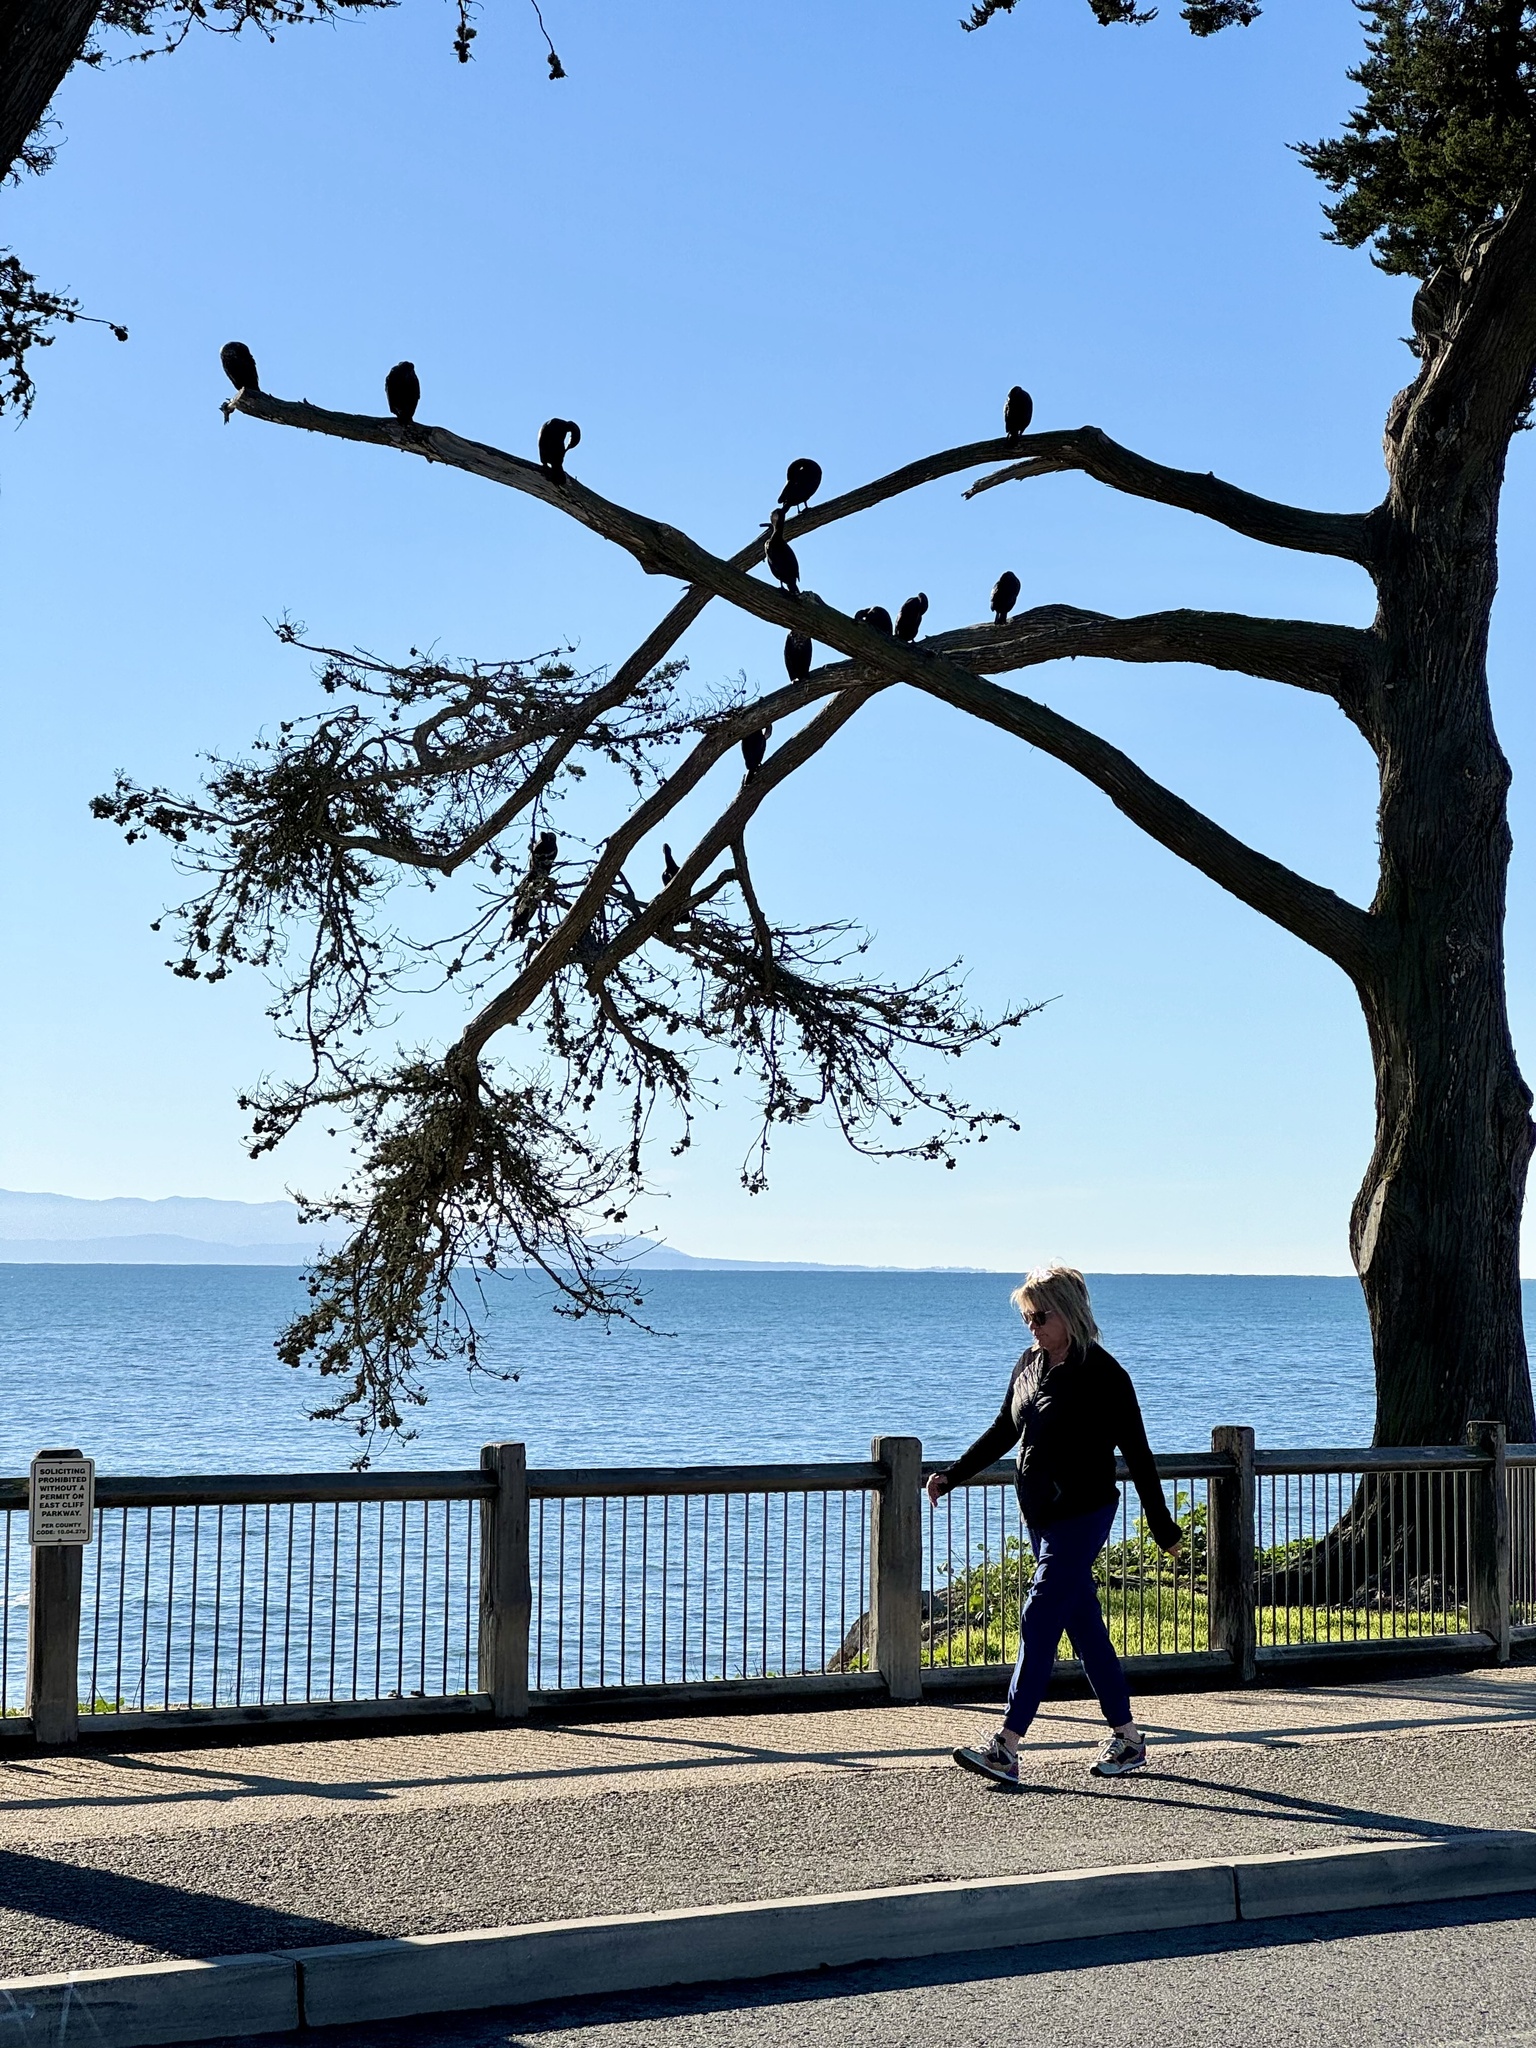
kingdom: Animalia
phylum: Chordata
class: Aves
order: Suliformes
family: Phalacrocoracidae
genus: Phalacrocorax
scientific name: Phalacrocorax auritus
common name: Double-crested cormorant
